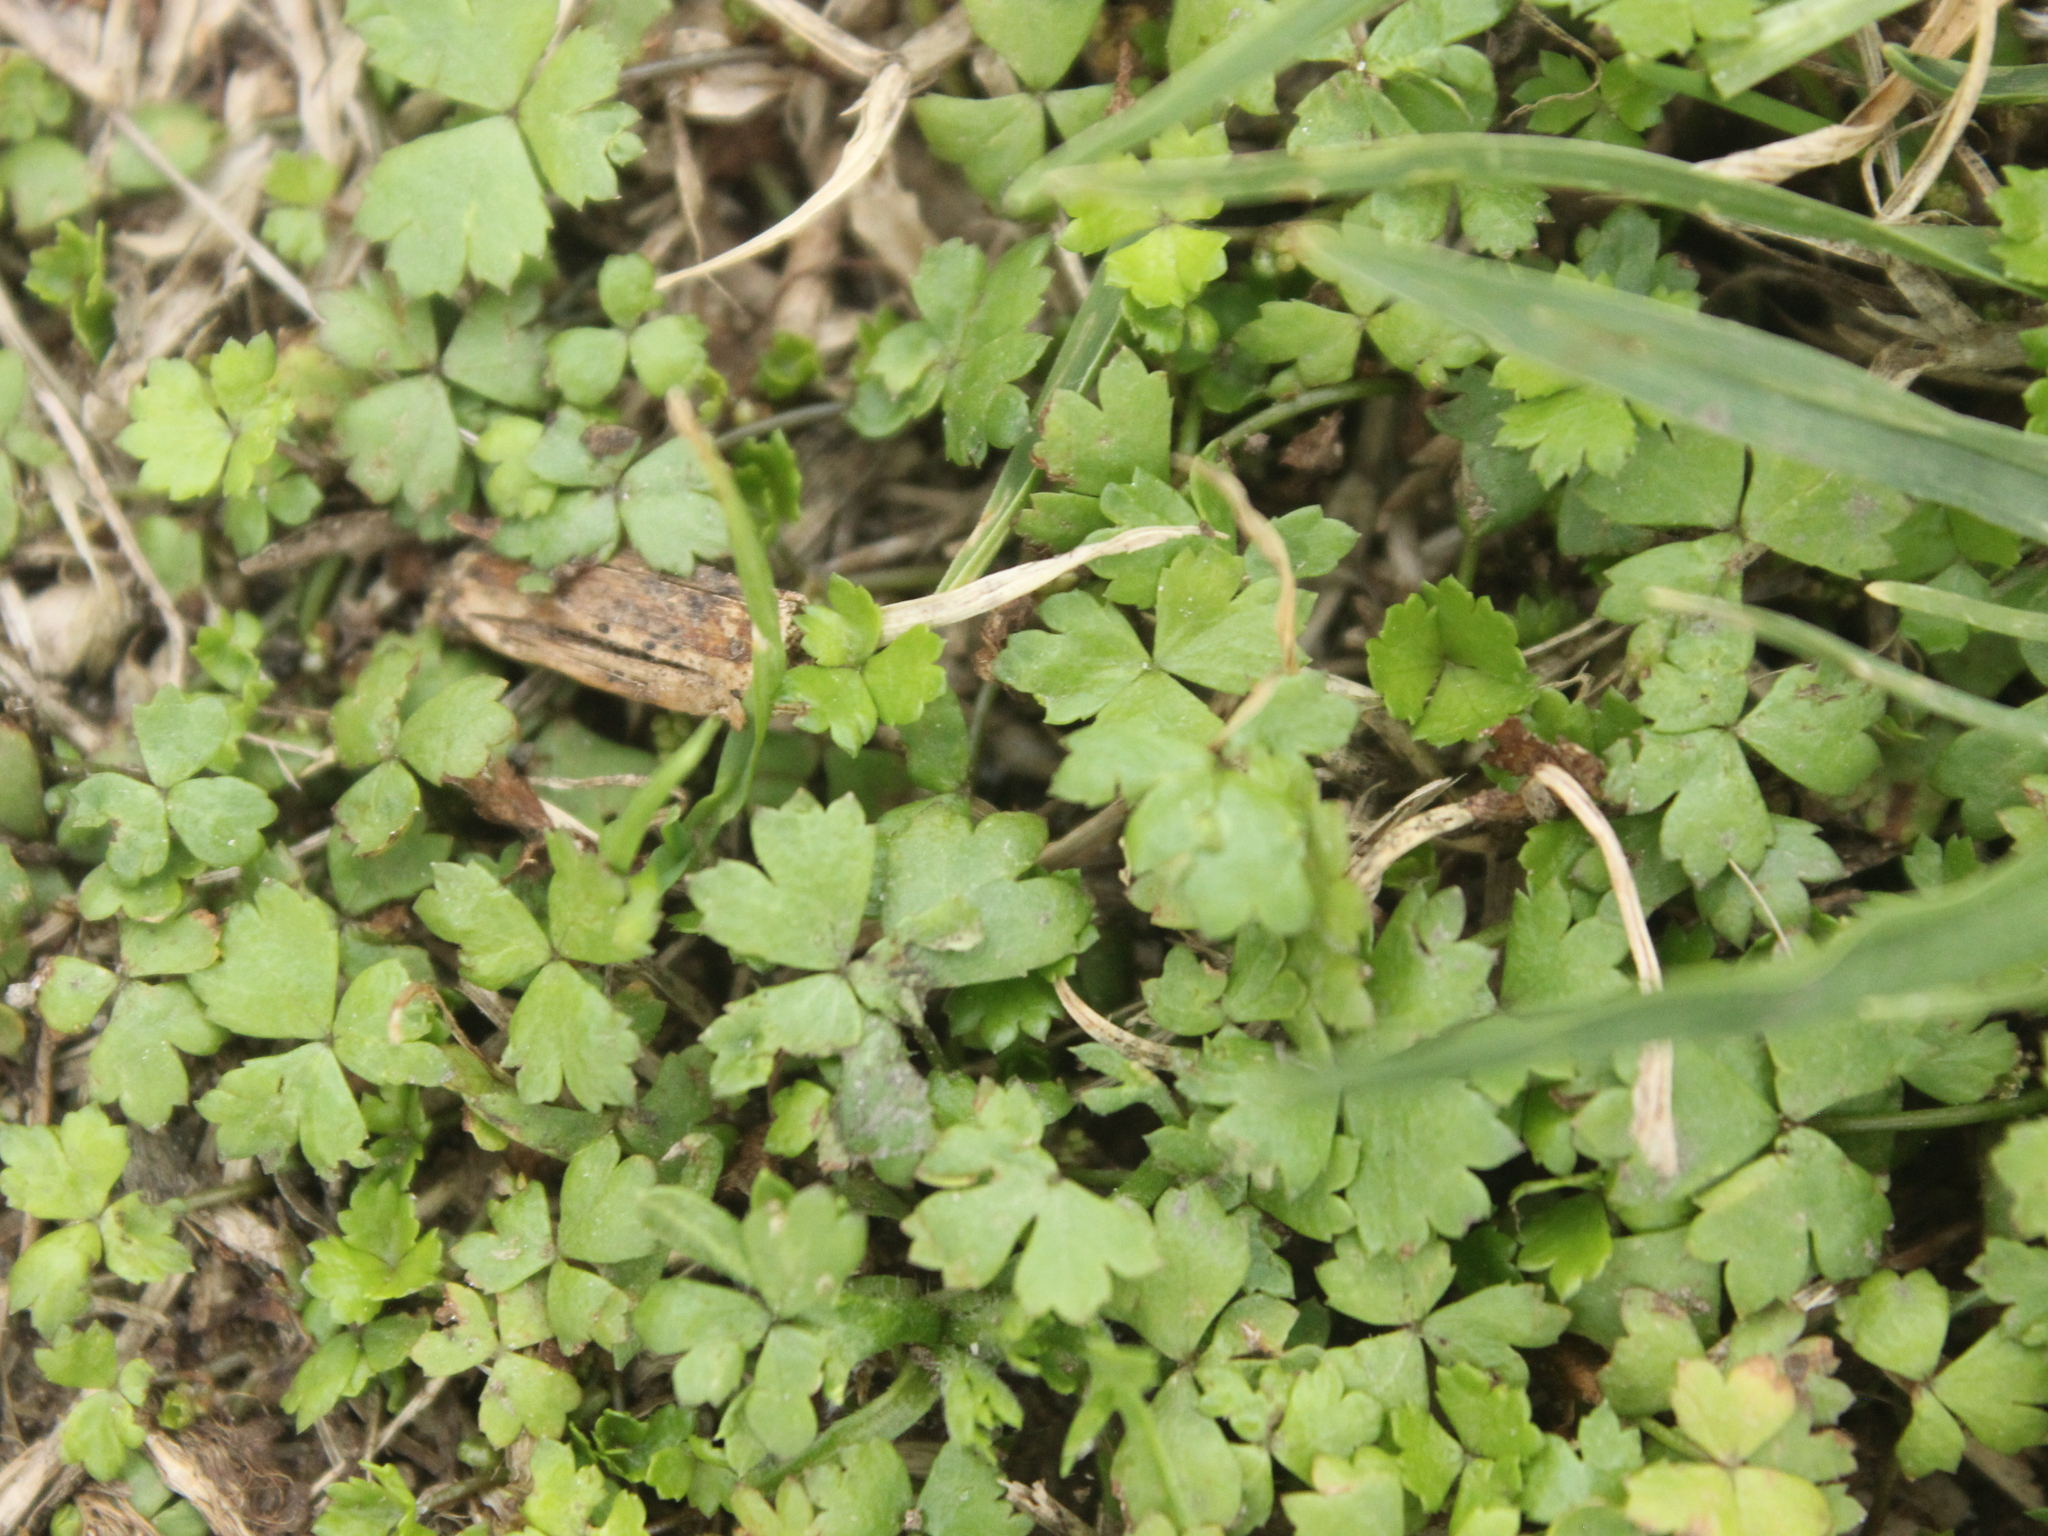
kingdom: Plantae
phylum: Tracheophyta
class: Magnoliopsida
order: Apiales
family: Araliaceae
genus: Hydrocotyle
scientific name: Hydrocotyle tripartita
